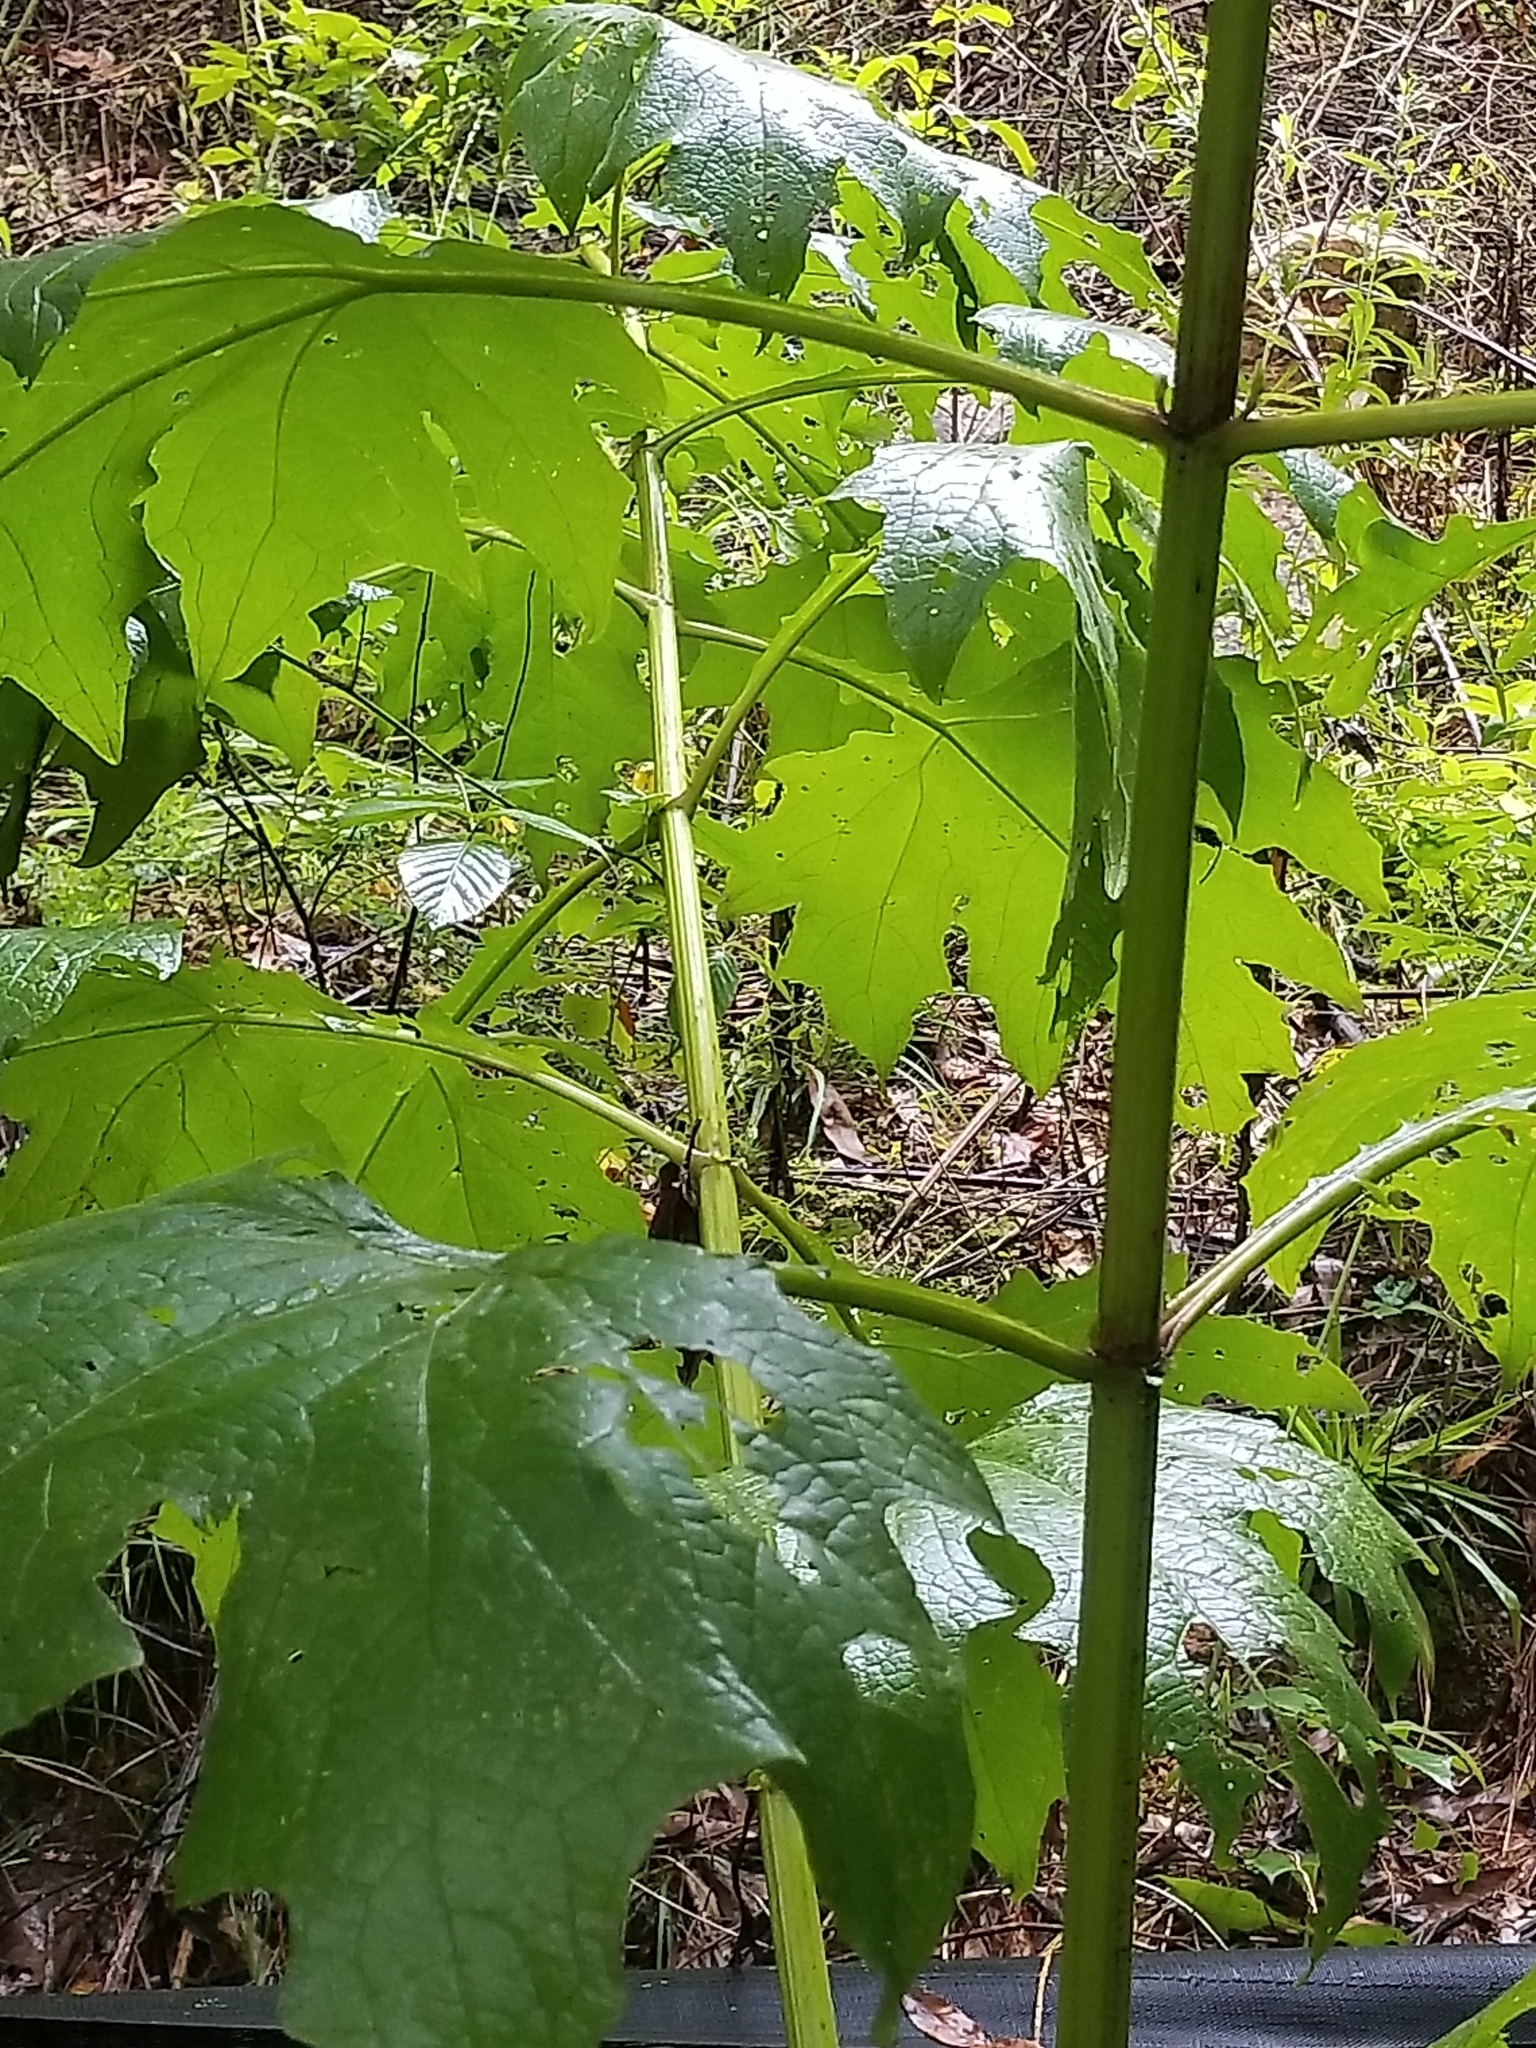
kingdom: Plantae
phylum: Tracheophyta
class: Magnoliopsida
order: Asterales
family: Asteraceae
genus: Smallanthus
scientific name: Smallanthus uvedalia
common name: Bear's-foot
